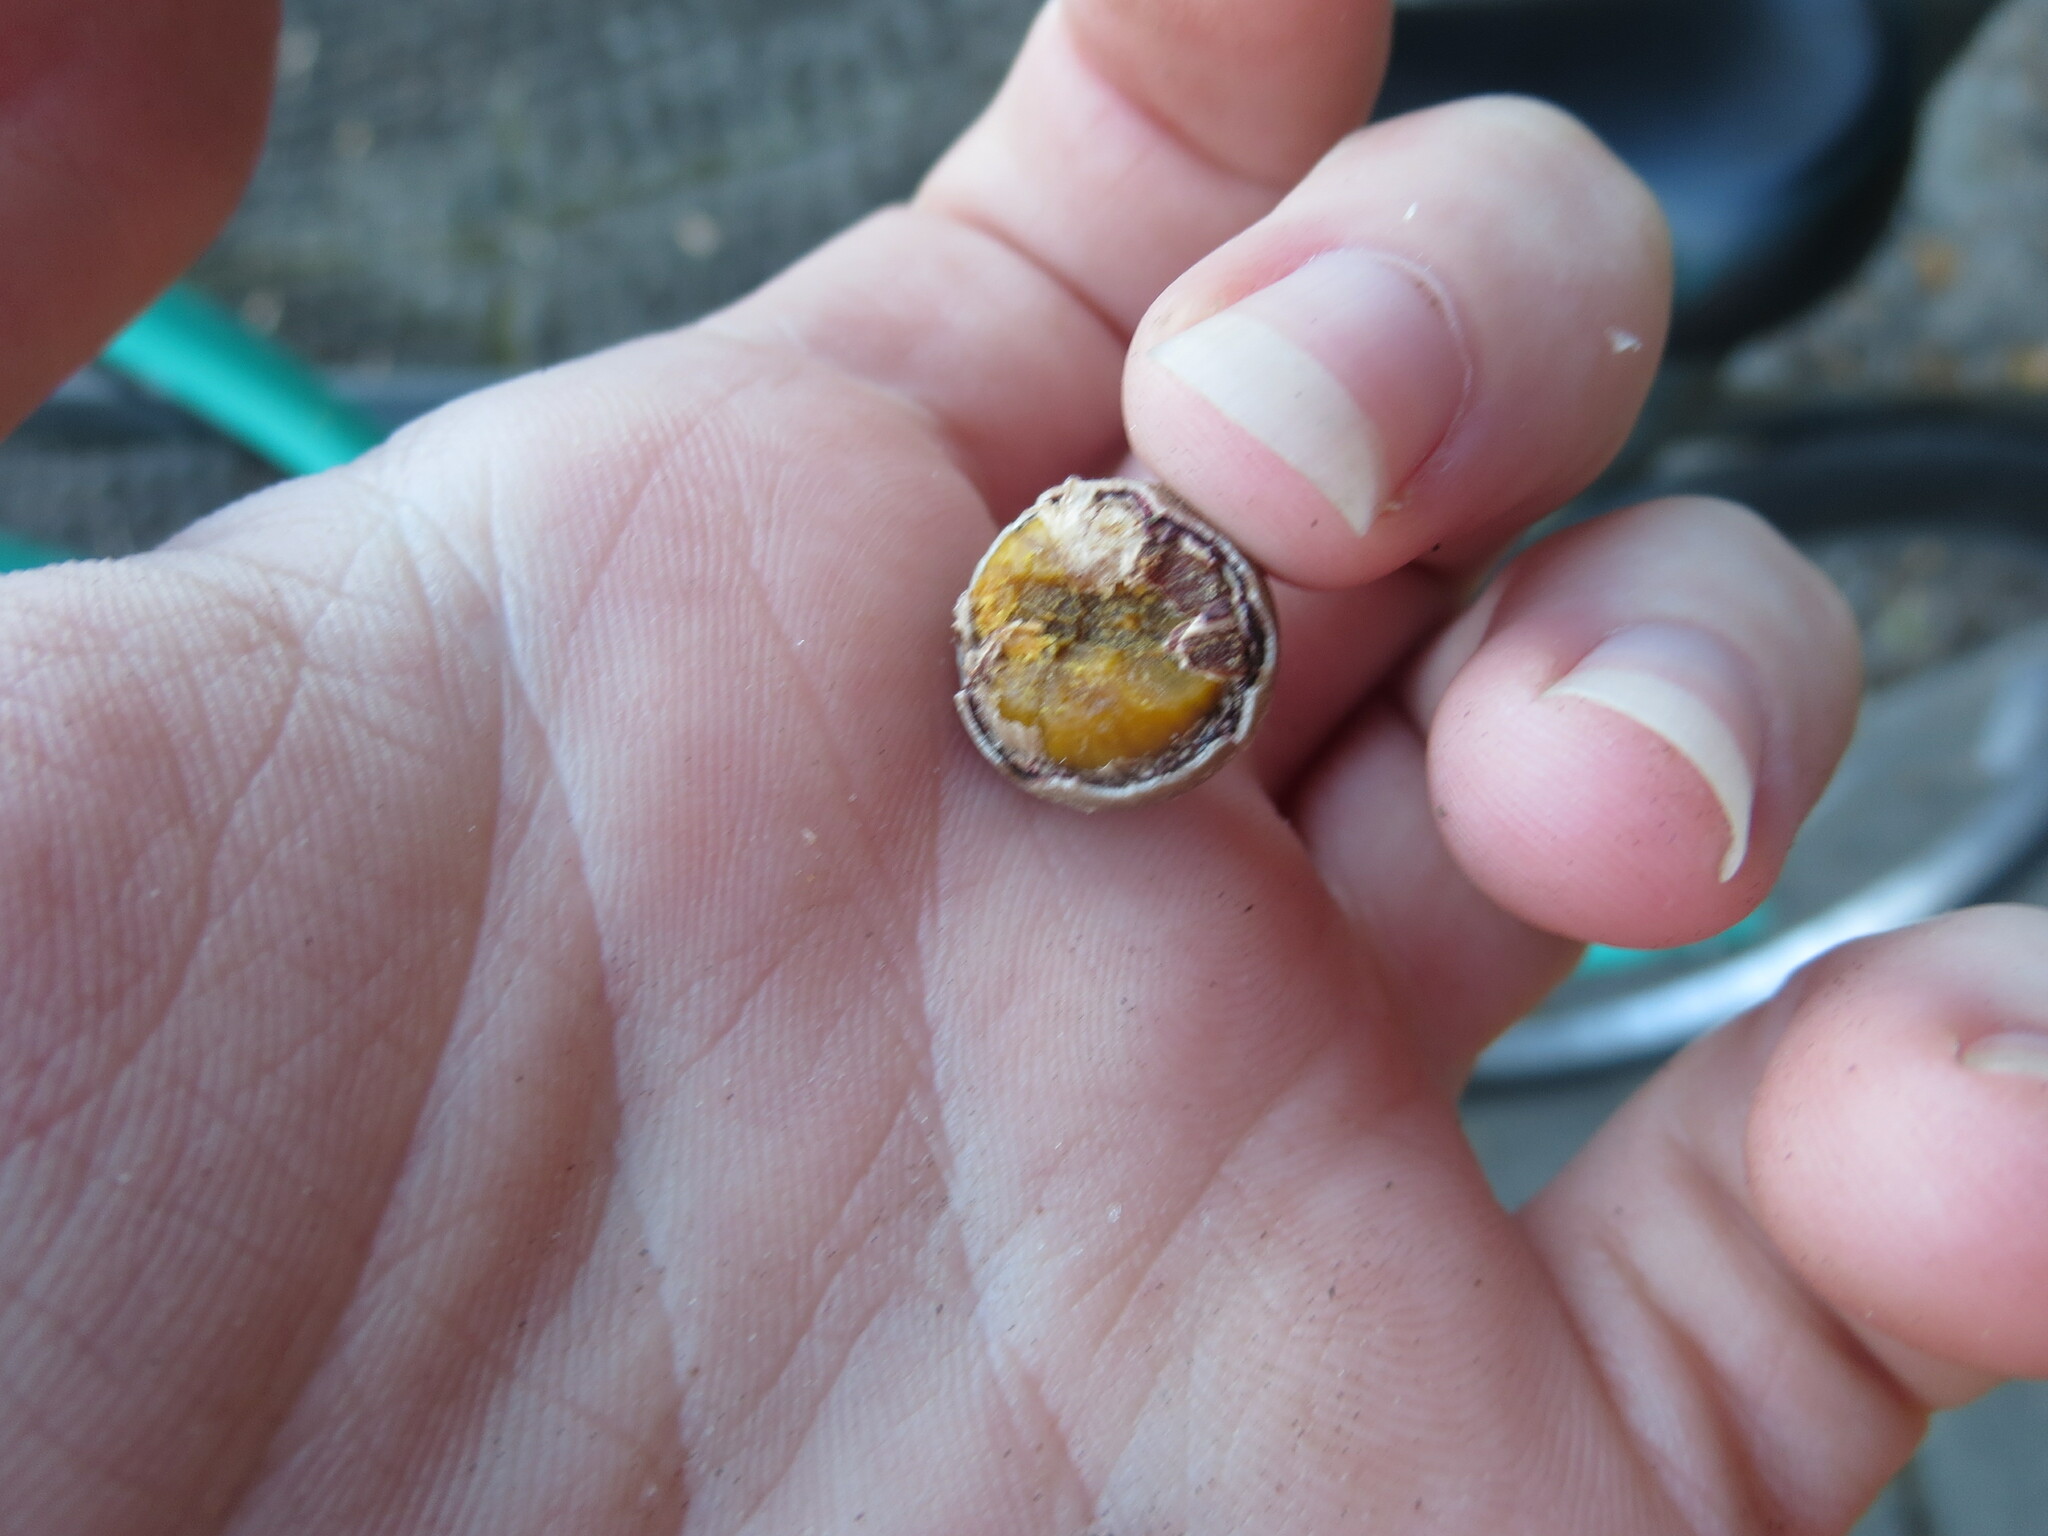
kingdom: Plantae
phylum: Tracheophyta
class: Magnoliopsida
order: Fagales
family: Fagaceae
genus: Quercus
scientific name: Quercus nigra
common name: Water oak
